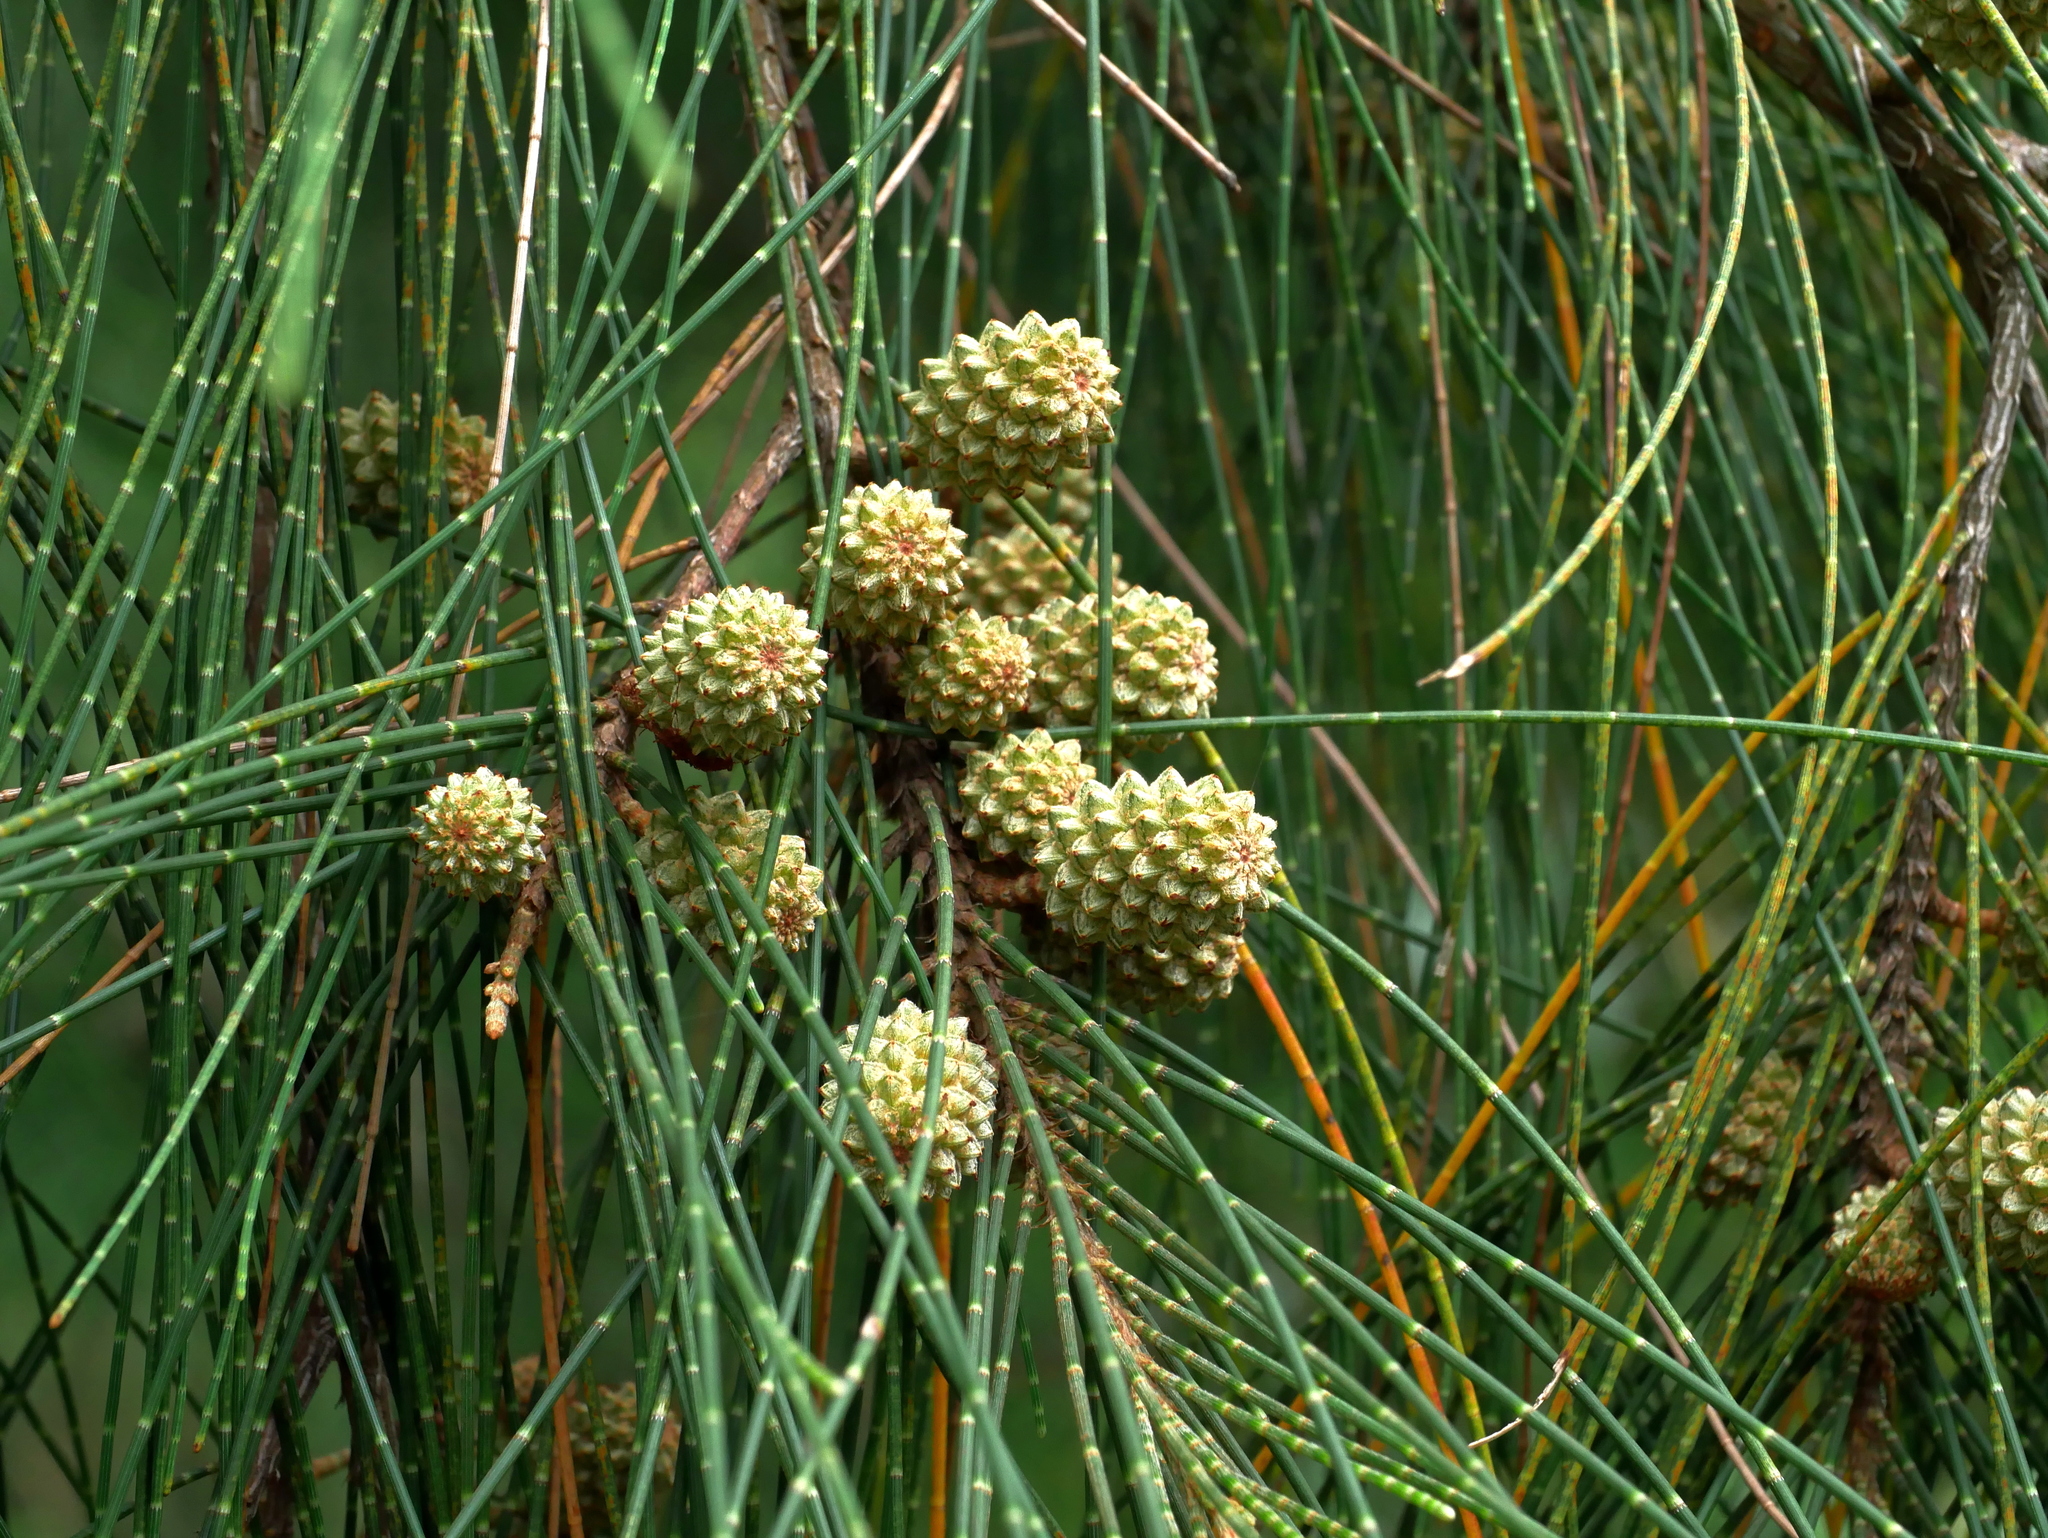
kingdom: Plantae
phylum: Tracheophyta
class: Magnoliopsida
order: Fagales
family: Casuarinaceae
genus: Casuarina
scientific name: Casuarina equisetifolia
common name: Beach sheoak
